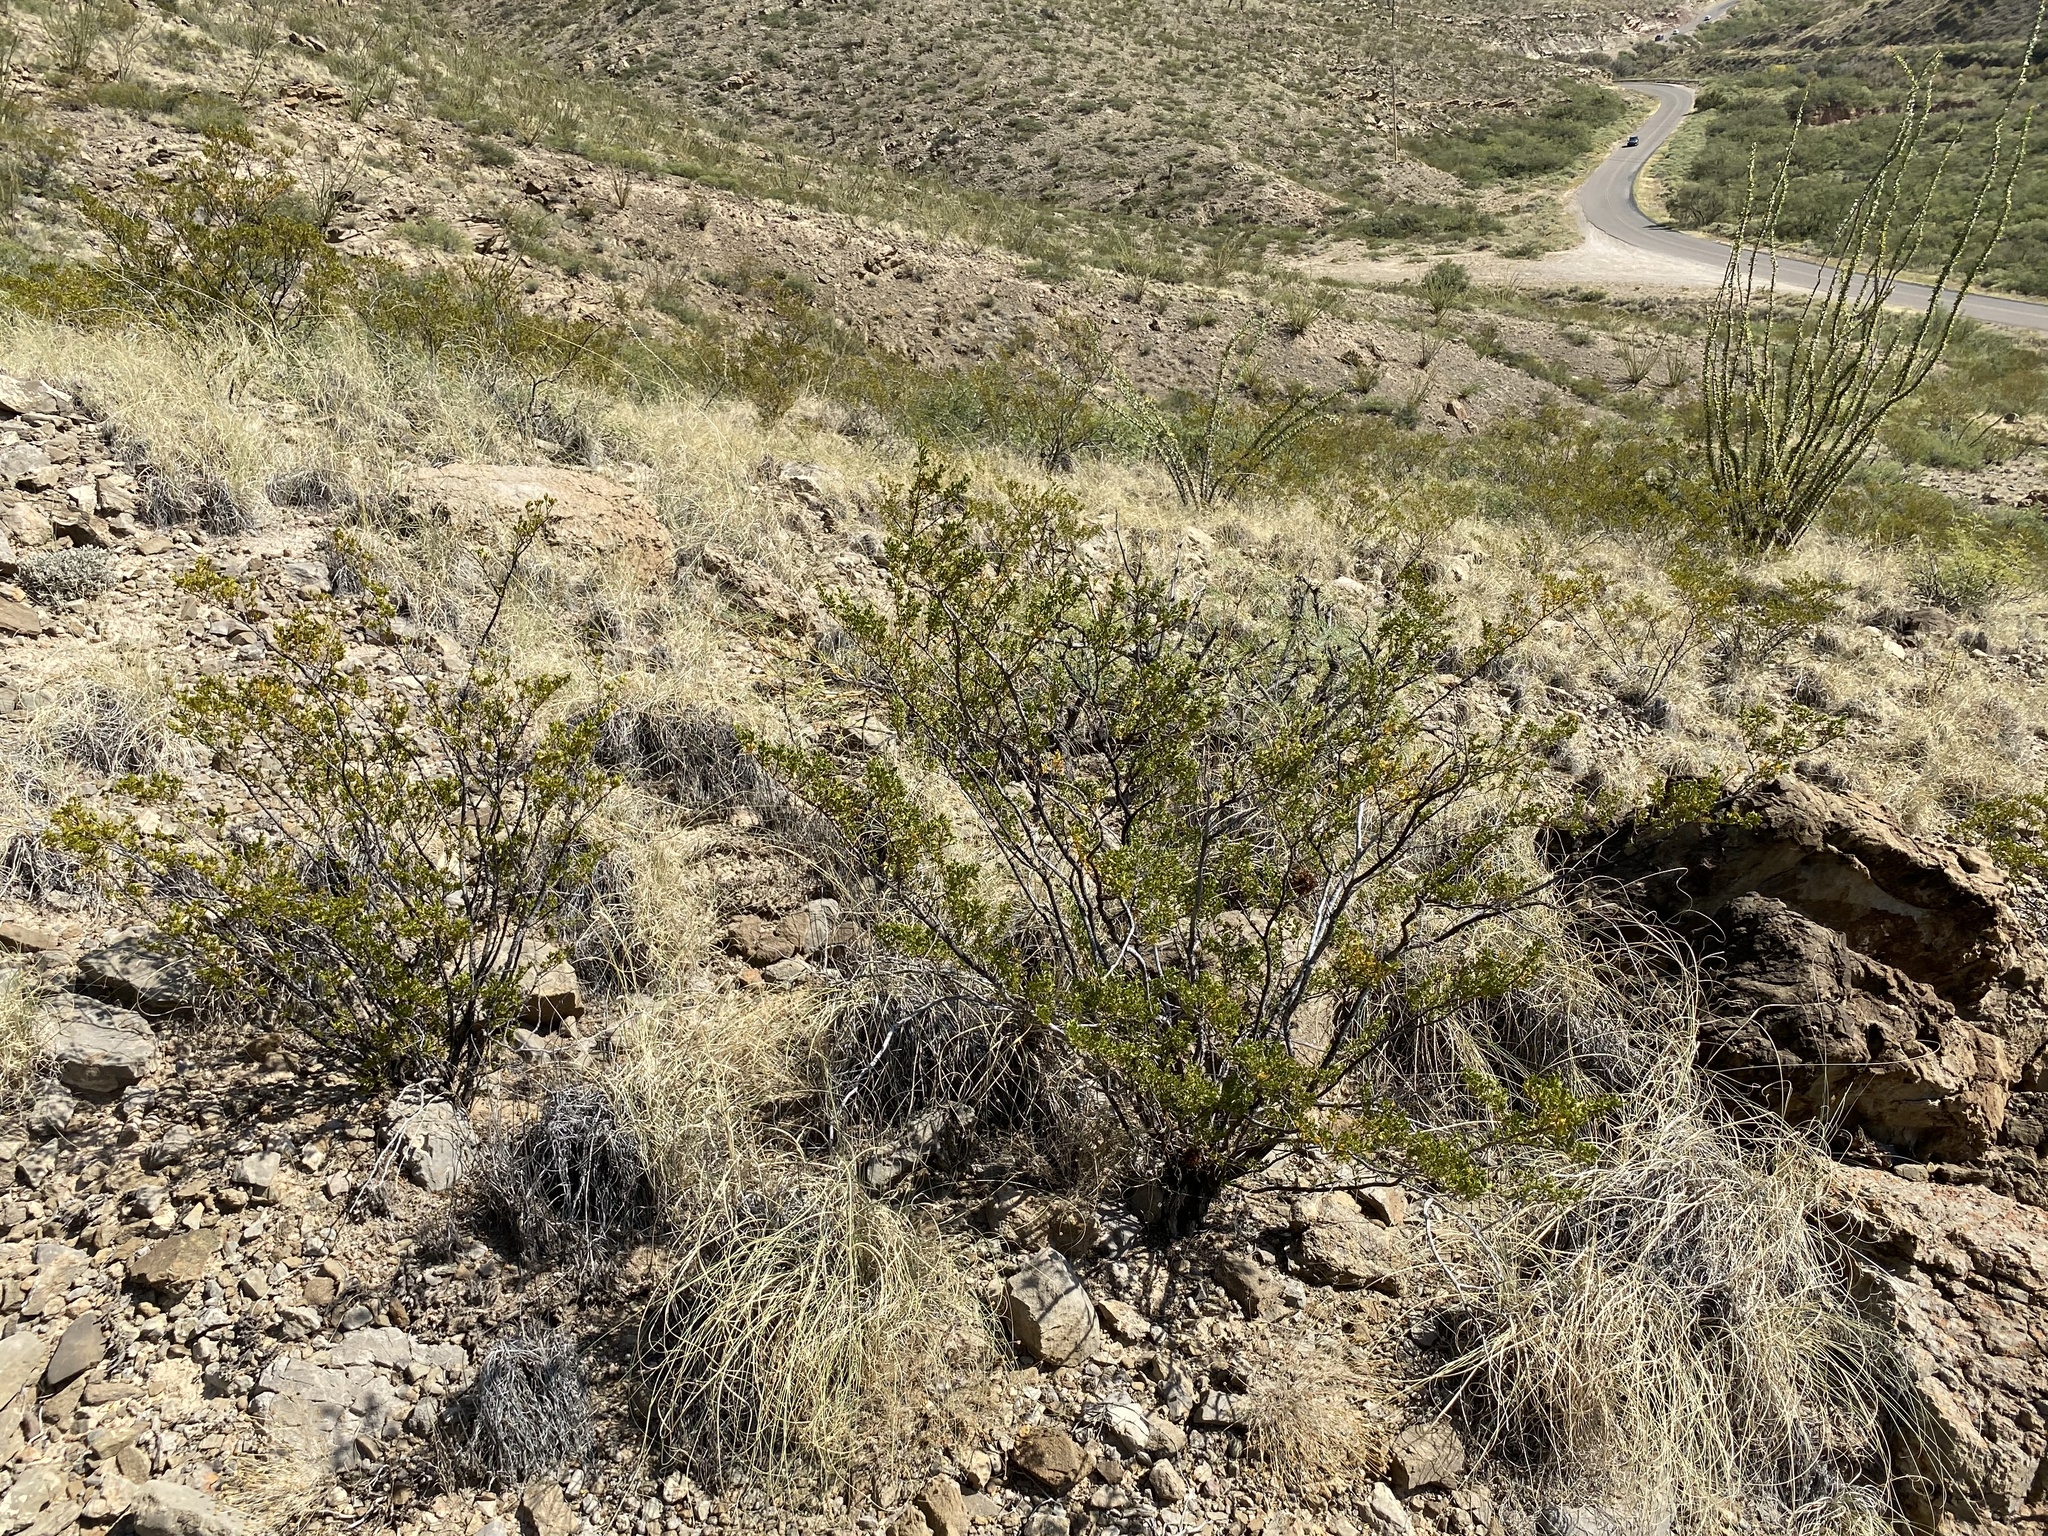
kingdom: Plantae
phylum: Tracheophyta
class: Magnoliopsida
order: Zygophyllales
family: Zygophyllaceae
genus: Larrea
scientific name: Larrea tridentata
